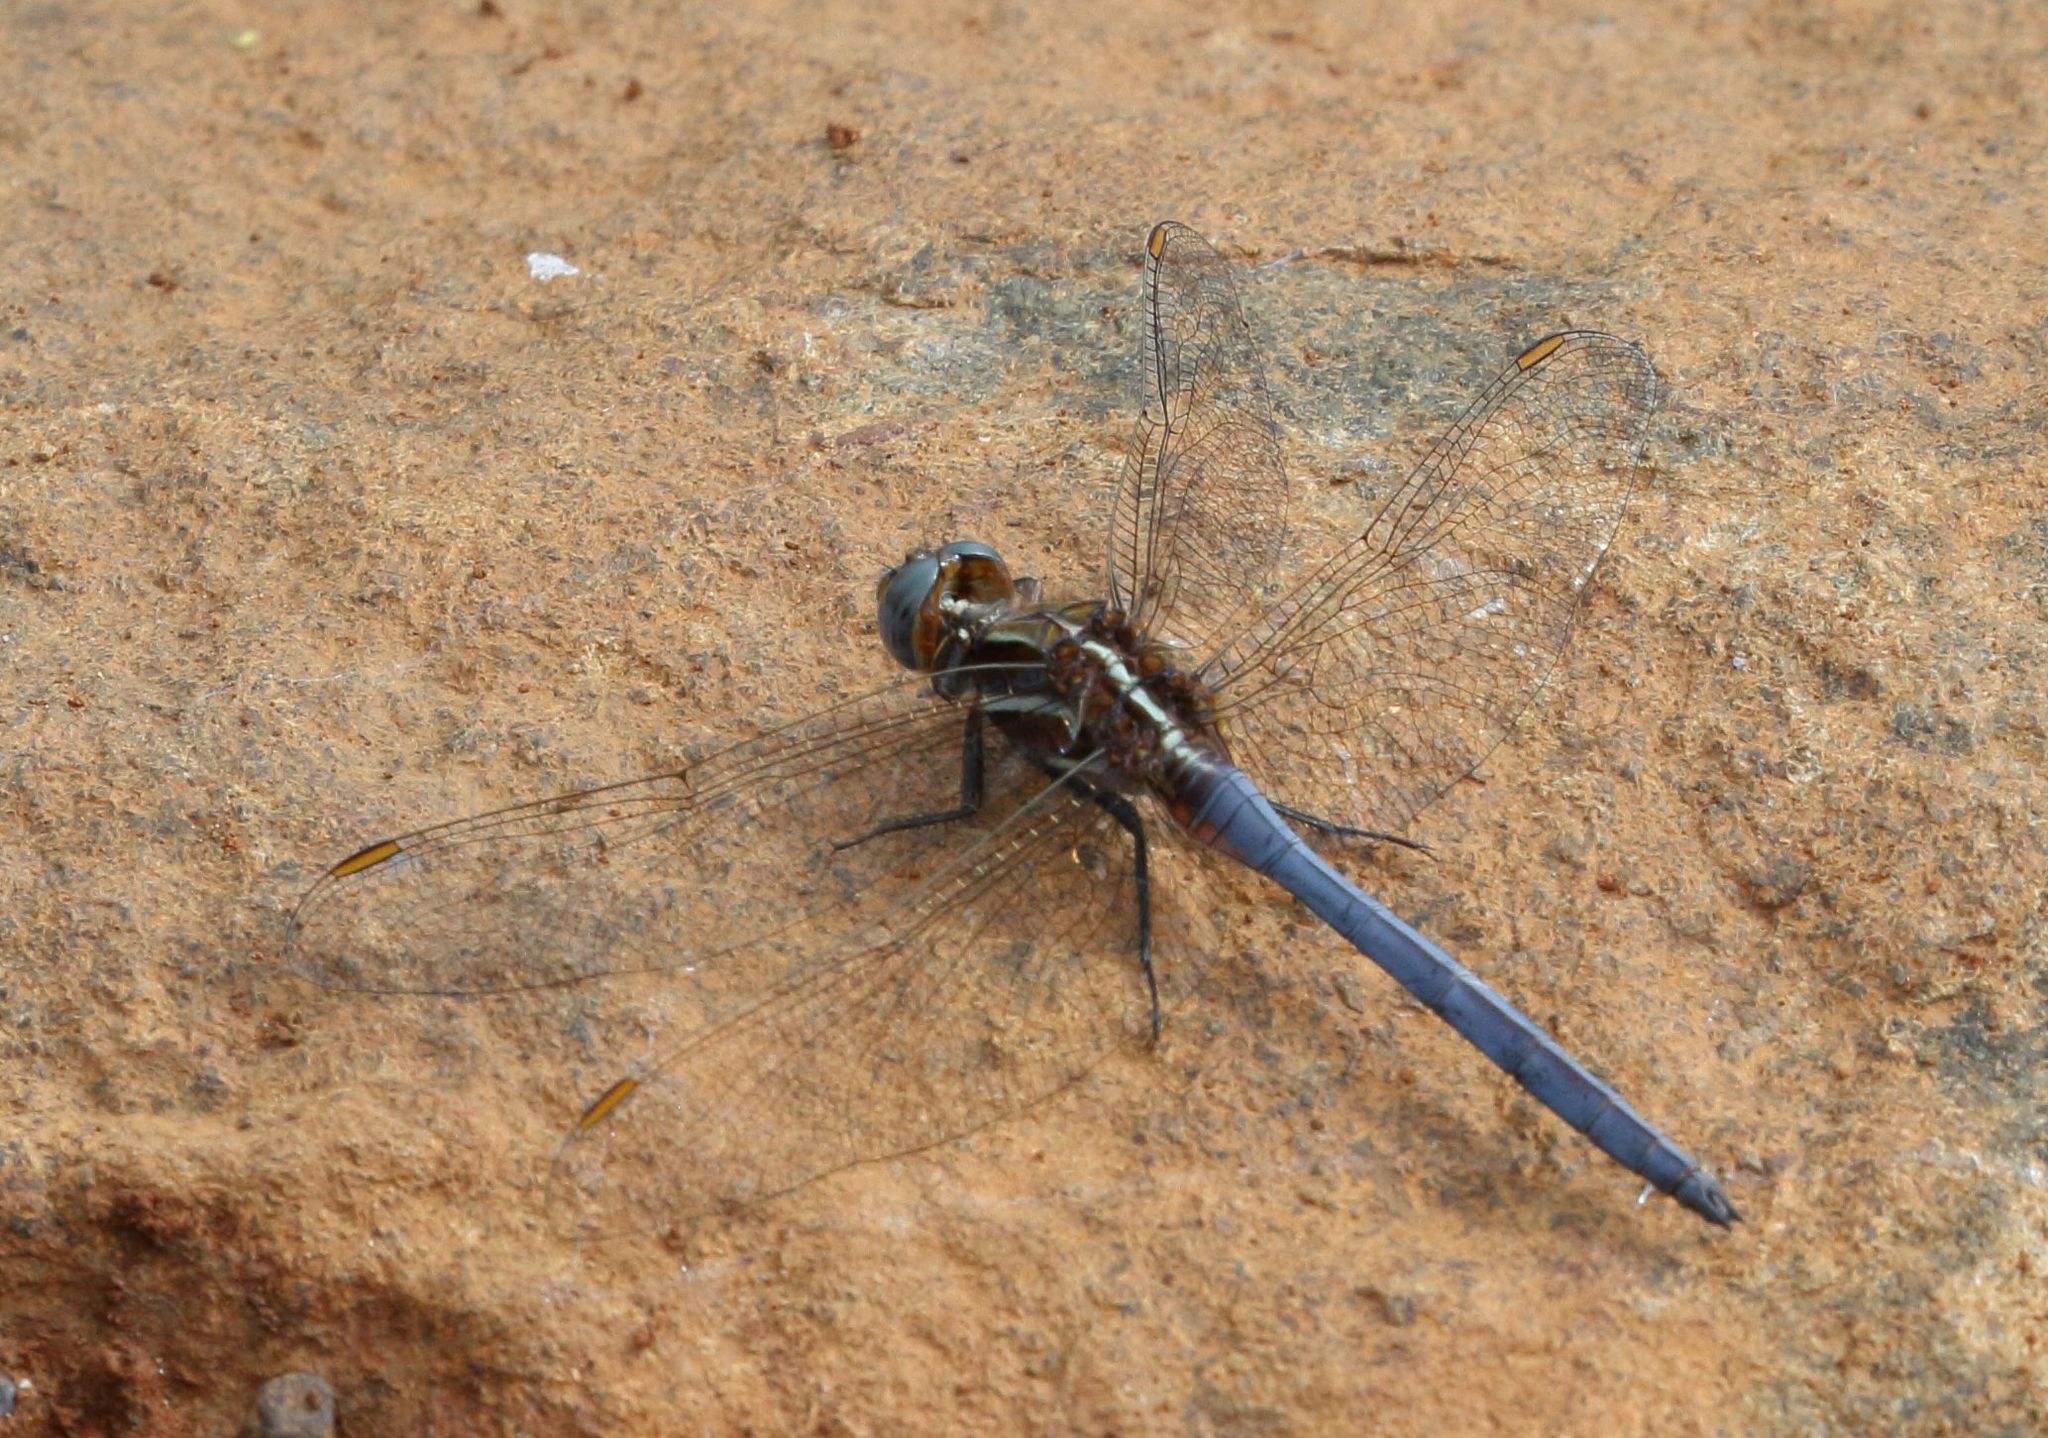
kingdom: Animalia
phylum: Arthropoda
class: Insecta
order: Odonata
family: Libellulidae
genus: Orthetrum
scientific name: Orthetrum caffrum
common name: Two-striped skimmer
